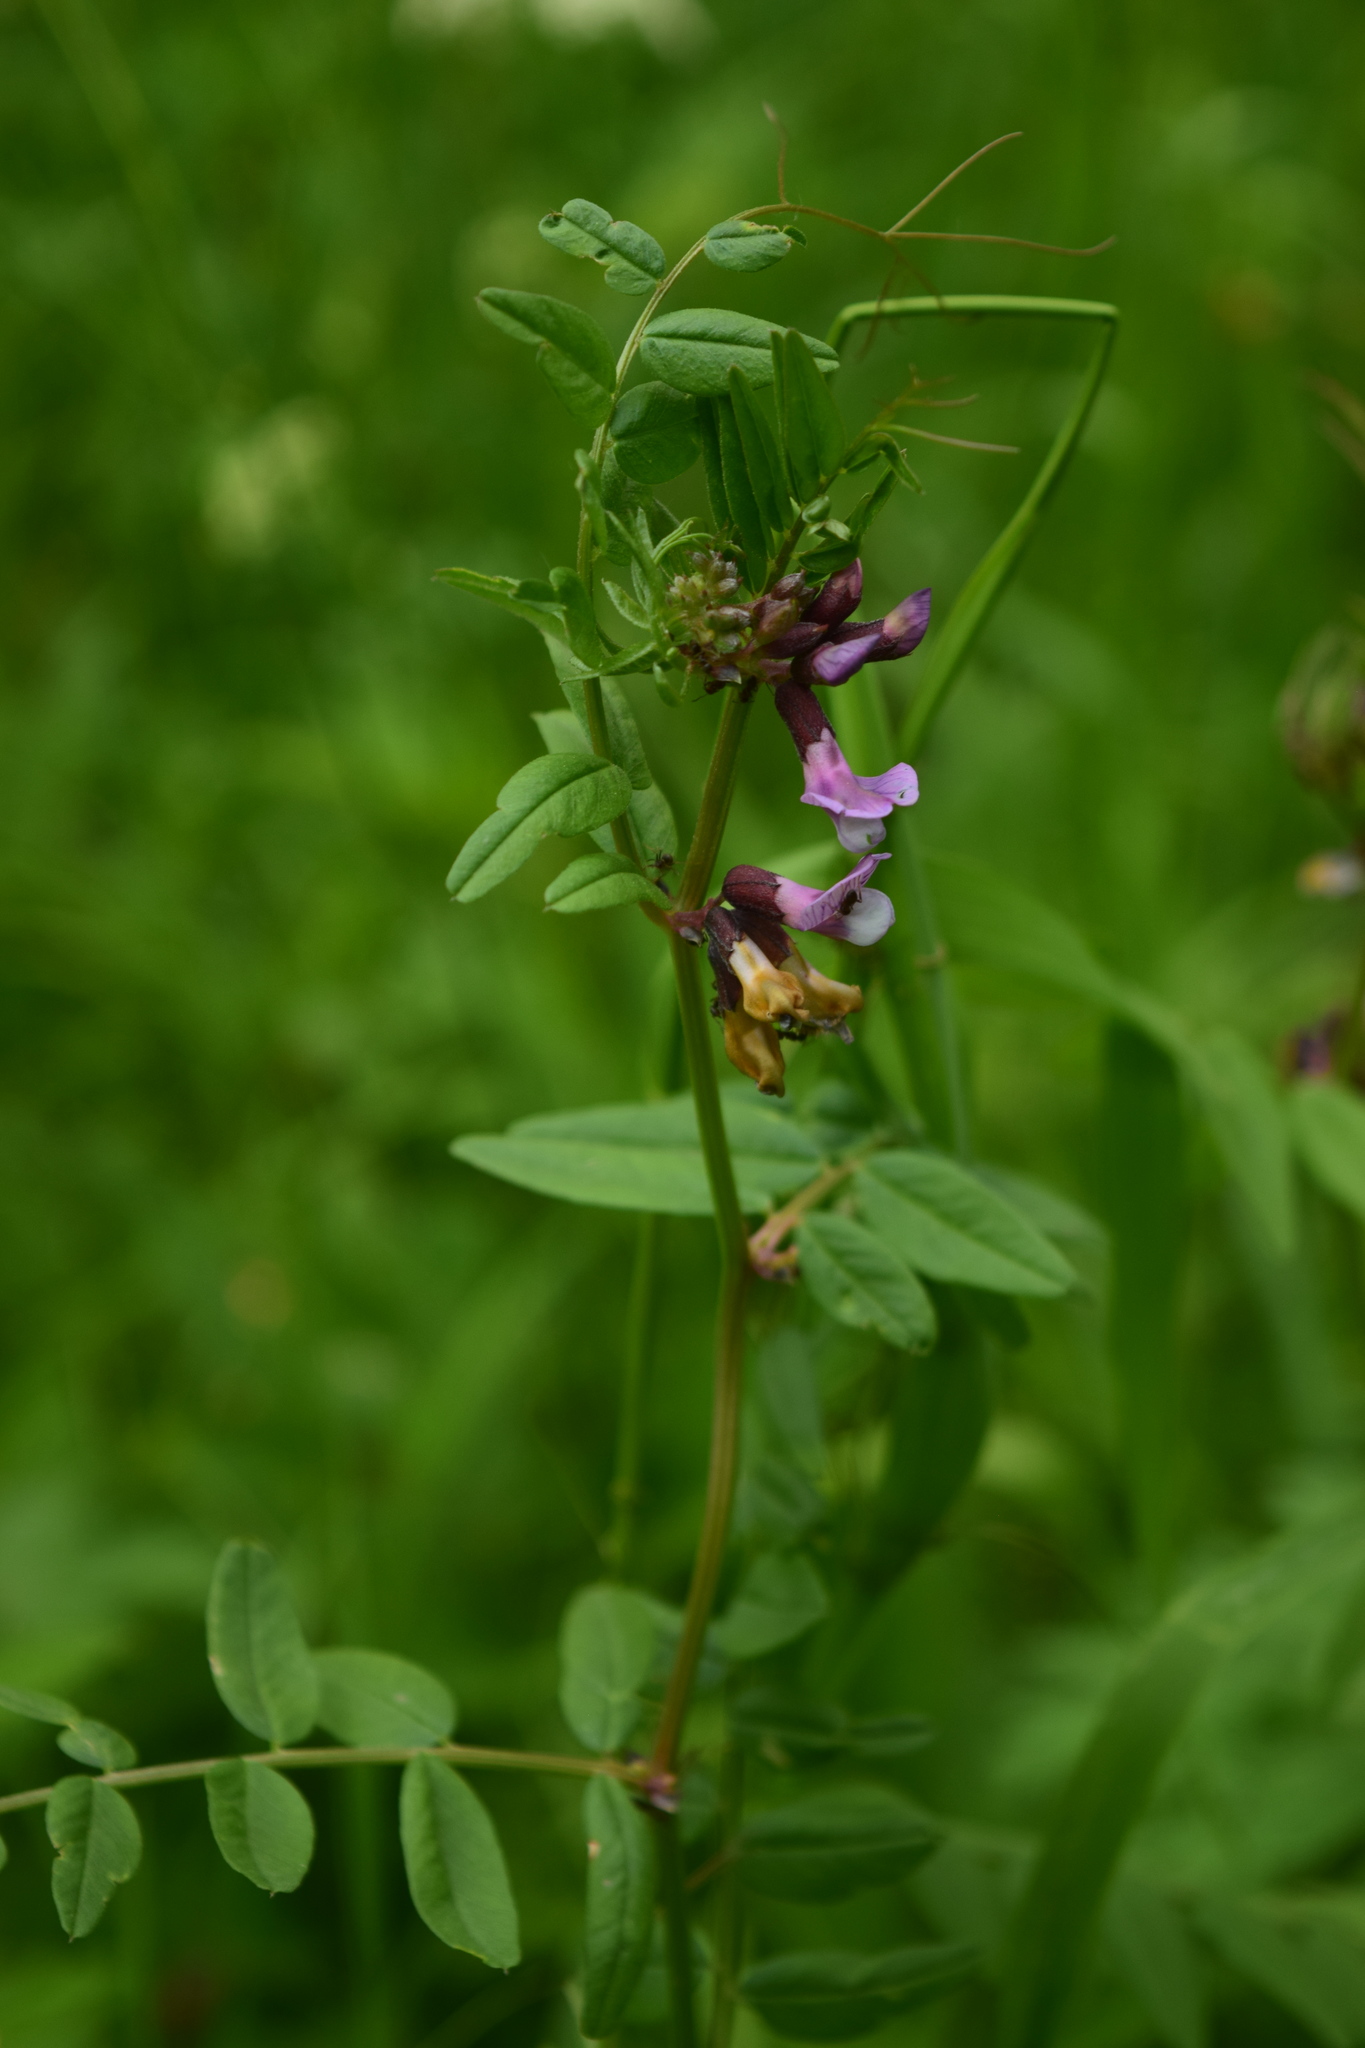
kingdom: Plantae
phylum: Tracheophyta
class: Magnoliopsida
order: Fabales
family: Fabaceae
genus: Vicia
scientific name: Vicia sepium
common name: Bush vetch
